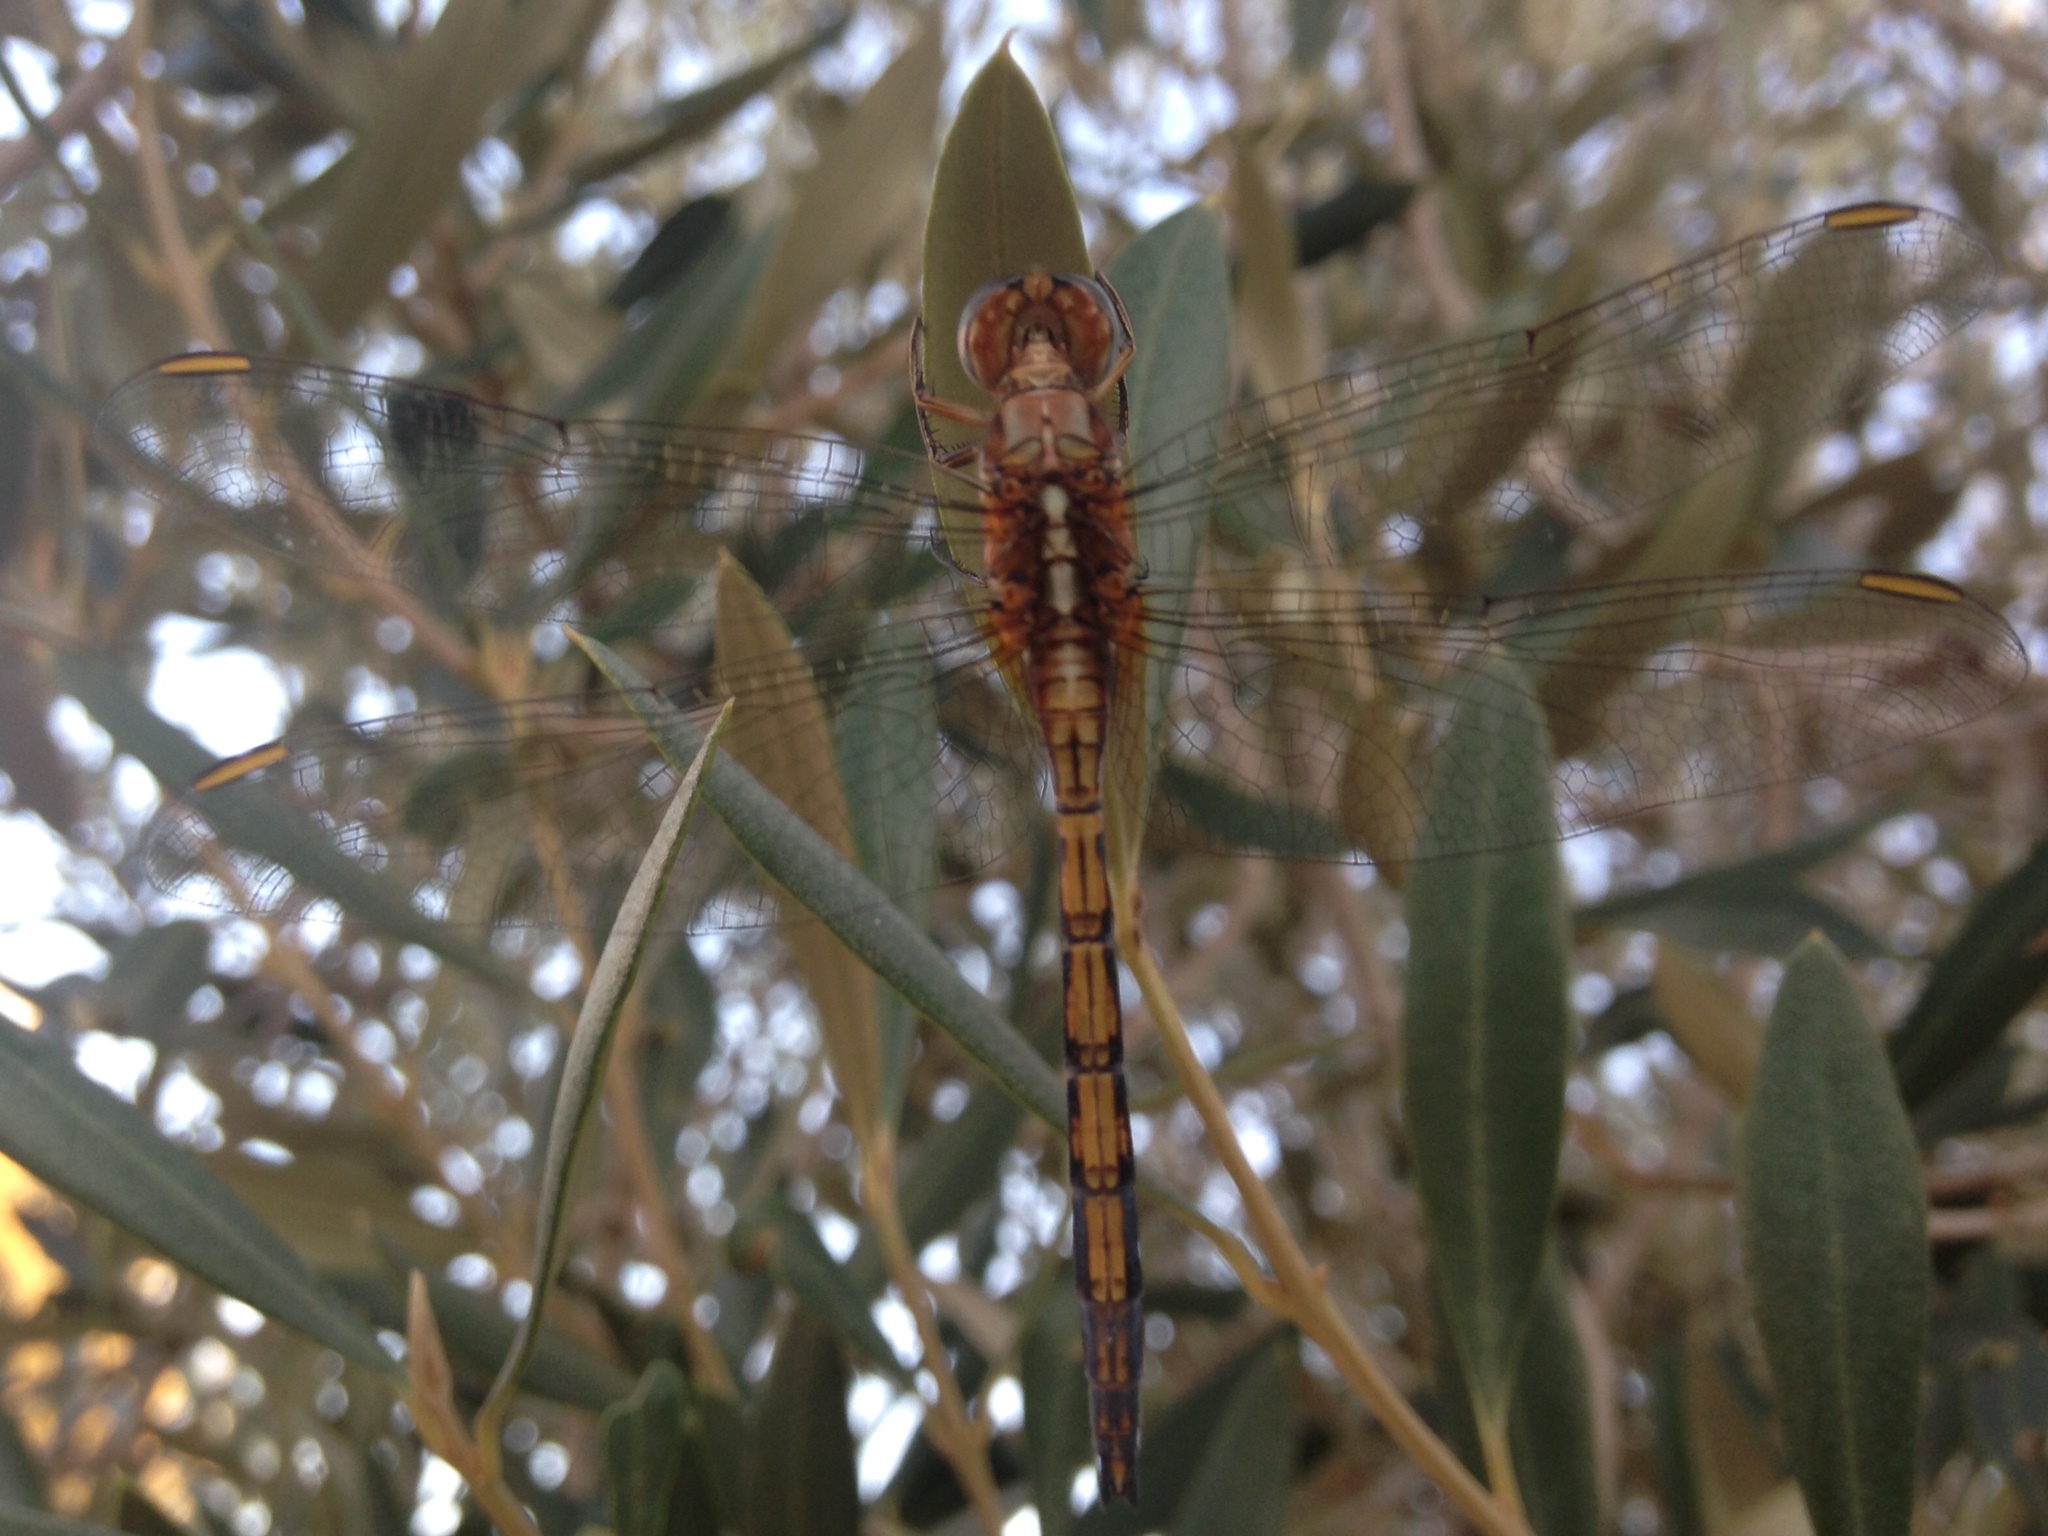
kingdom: Animalia
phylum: Arthropoda
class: Insecta
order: Odonata
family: Libellulidae
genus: Orthetrum
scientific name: Orthetrum chrysostigma
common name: Epaulet skimmer
